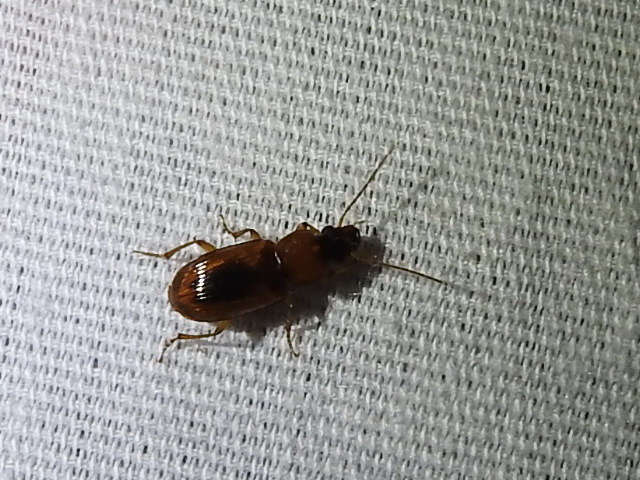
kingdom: Animalia
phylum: Arthropoda
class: Insecta
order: Coleoptera
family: Carabidae
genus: Stenolophus
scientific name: Stenolophus lecontei
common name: Leconte's seedcorn beetle
